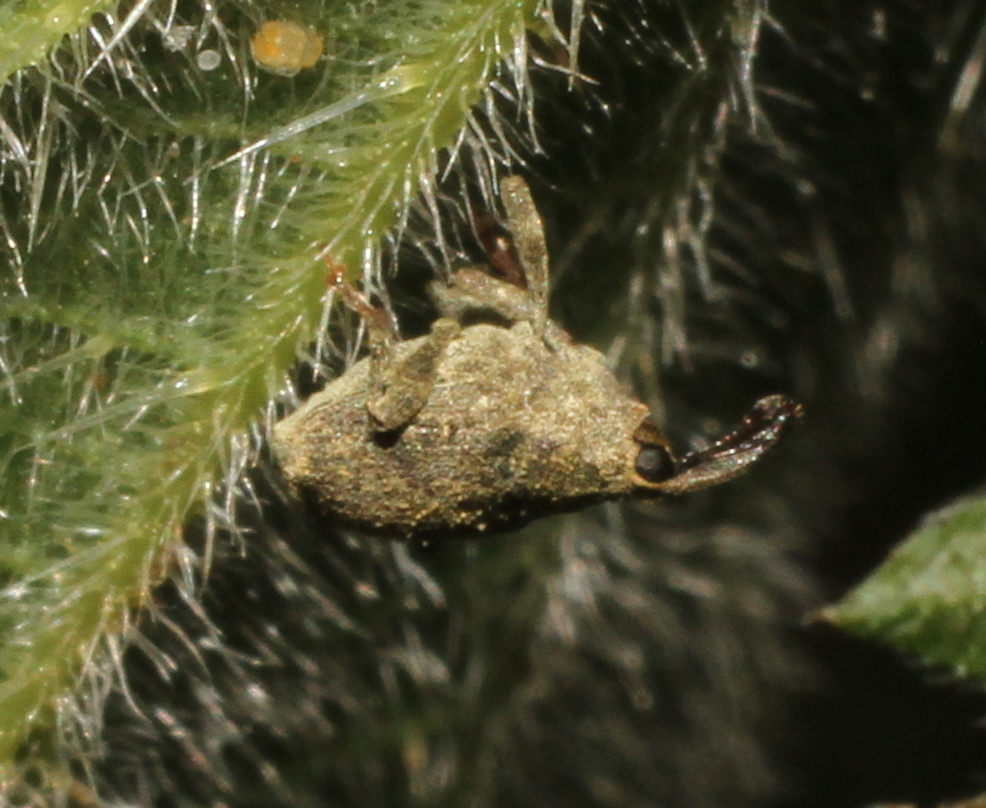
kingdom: Animalia
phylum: Arthropoda
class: Insecta
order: Coleoptera
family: Curculionidae
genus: Parethelcus
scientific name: Parethelcus pollinarius
